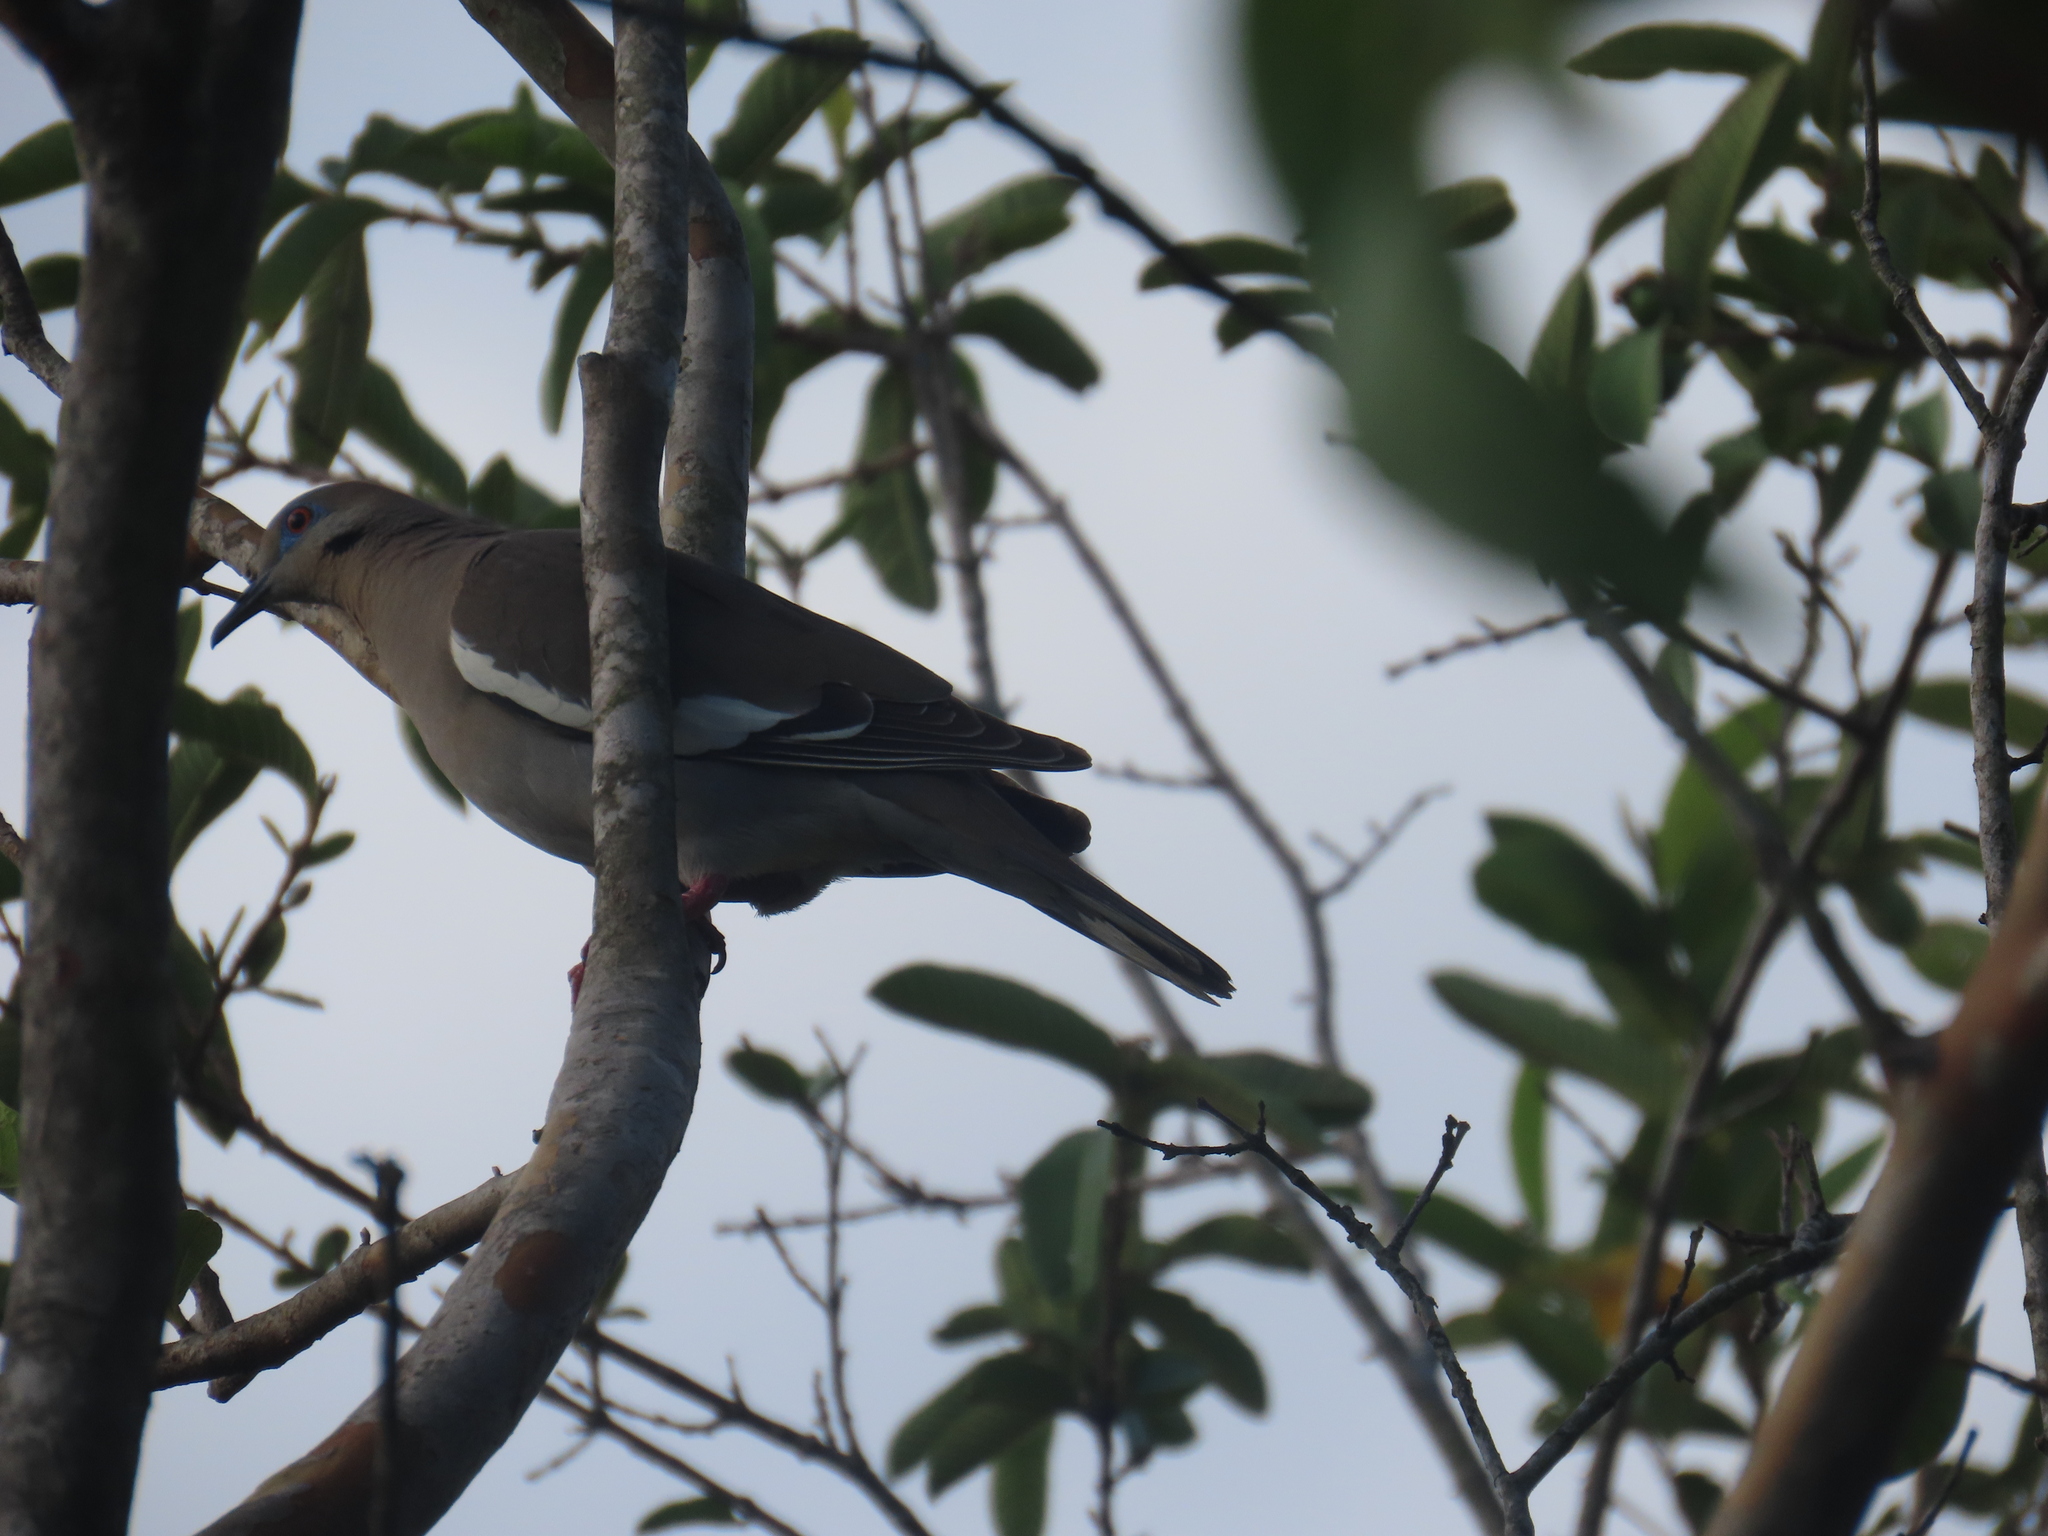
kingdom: Animalia
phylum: Chordata
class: Aves
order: Columbiformes
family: Columbidae
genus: Zenaida
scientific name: Zenaida asiatica
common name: White-winged dove
